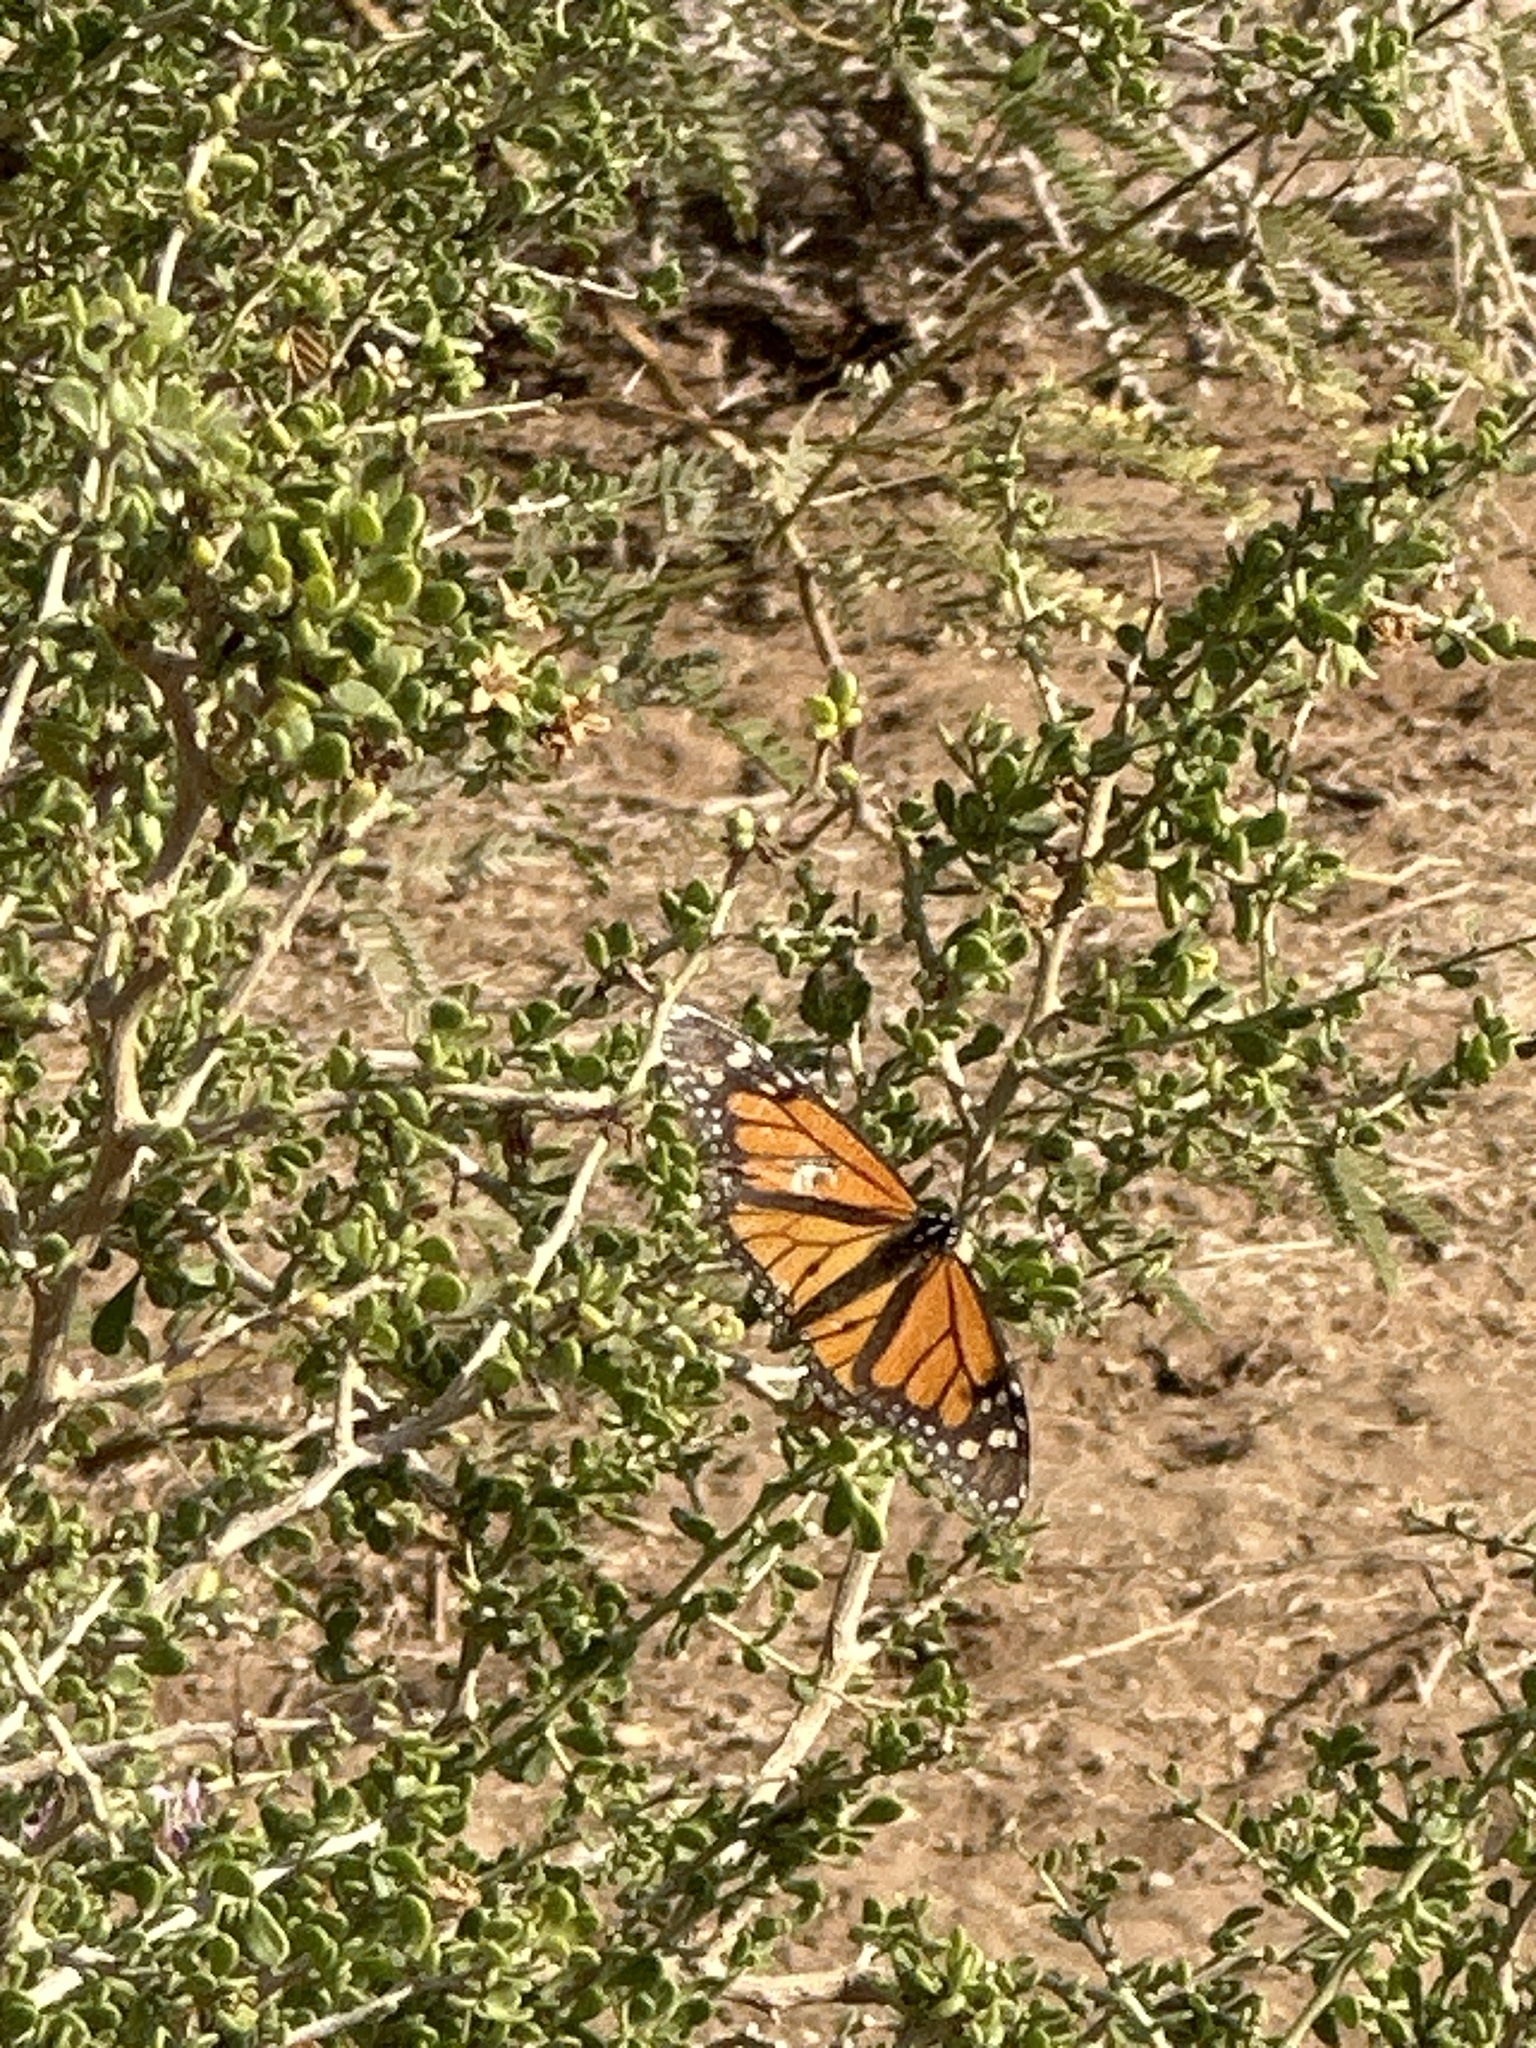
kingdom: Animalia
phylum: Arthropoda
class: Insecta
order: Lepidoptera
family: Nymphalidae
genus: Danaus
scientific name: Danaus plexippus
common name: Monarch
